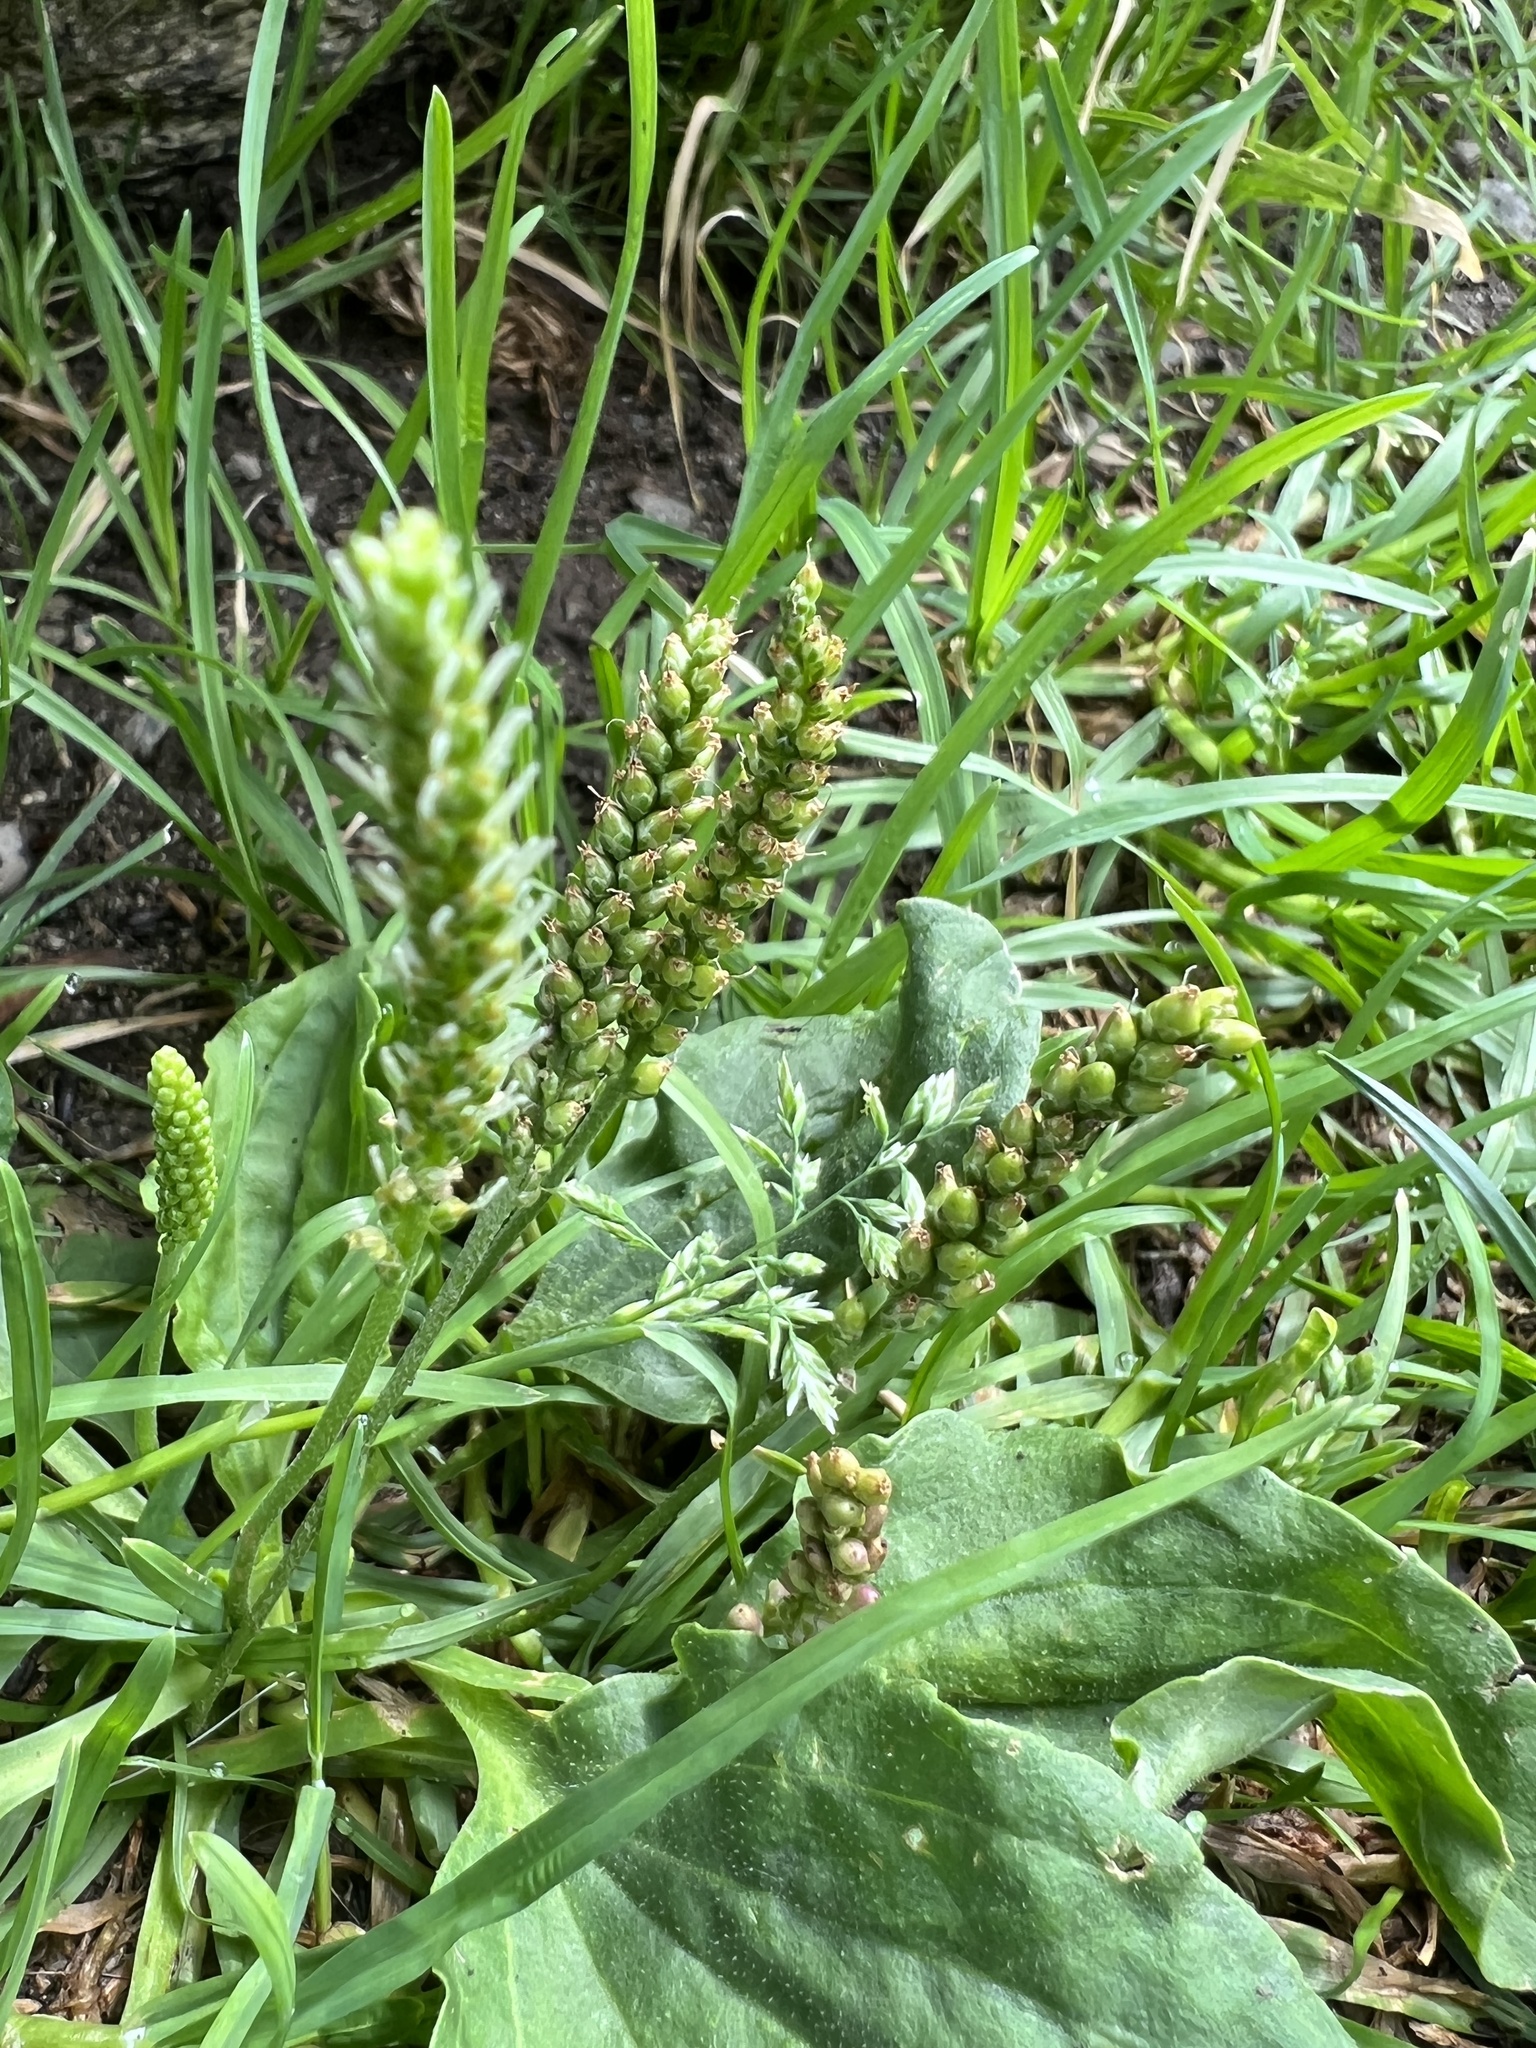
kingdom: Plantae
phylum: Tracheophyta
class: Magnoliopsida
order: Lamiales
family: Plantaginaceae
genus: Plantago
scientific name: Plantago major
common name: Common plantain
